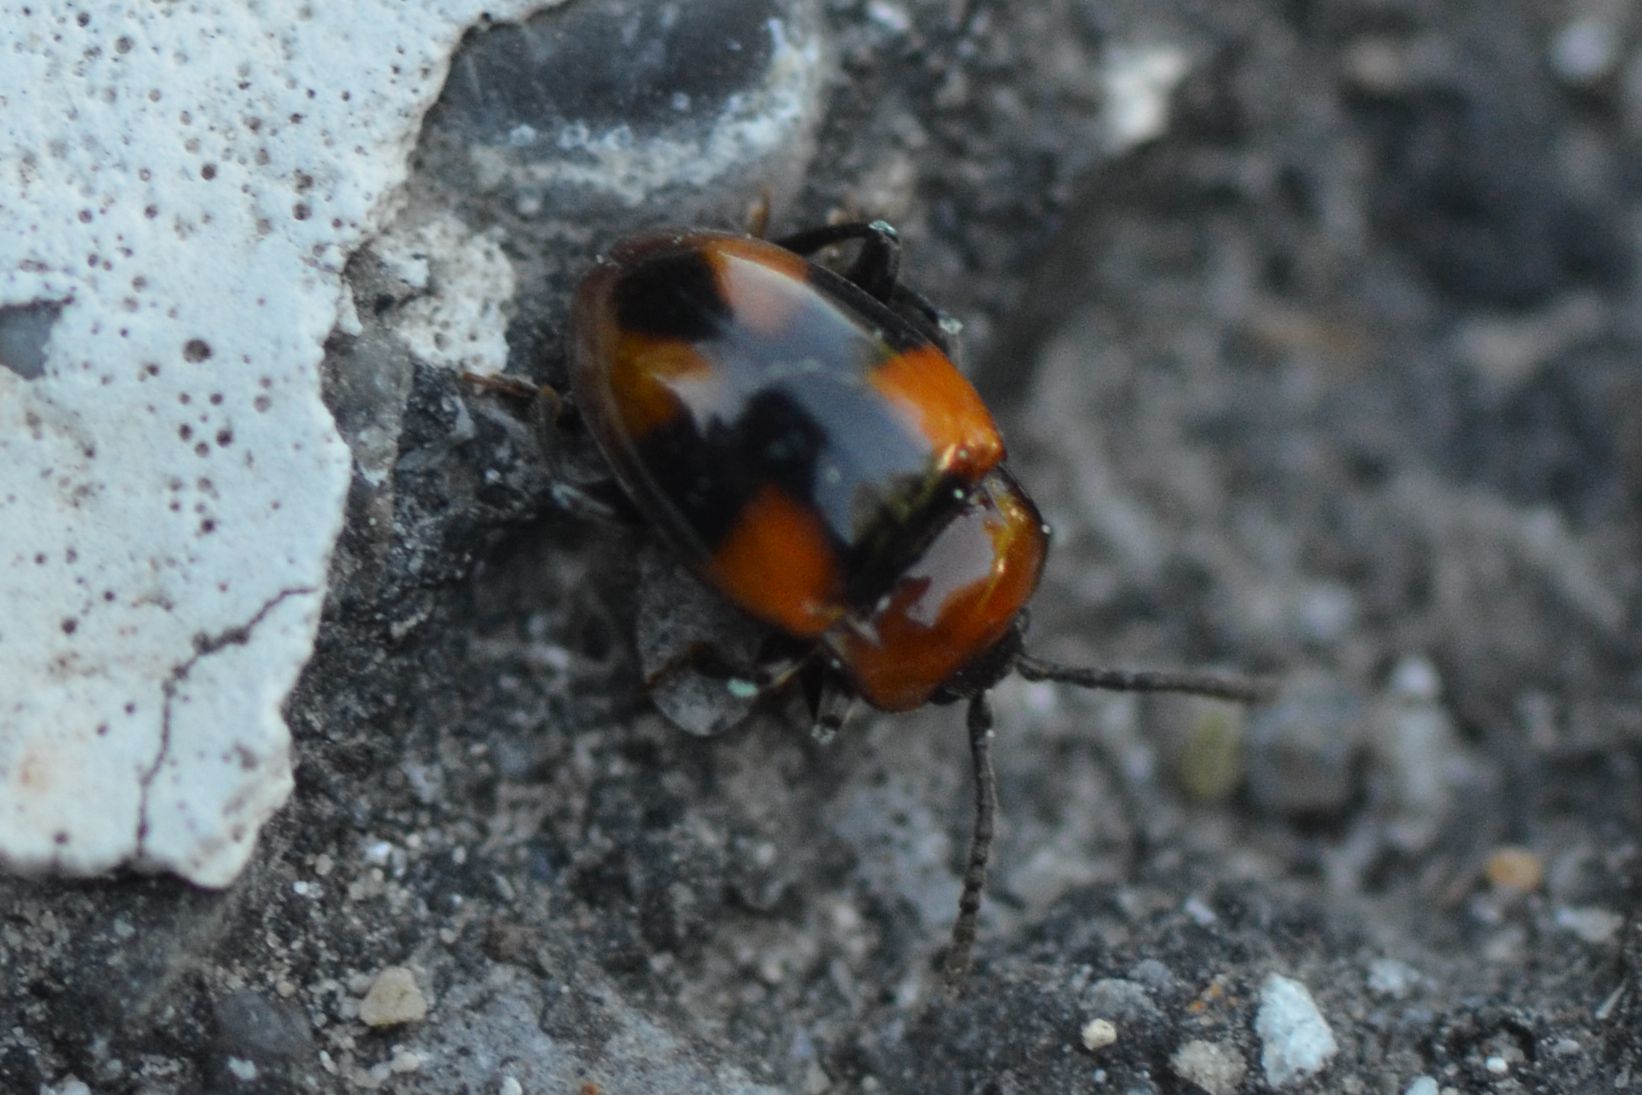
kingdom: Animalia
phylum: Arthropoda
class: Insecta
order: Coleoptera
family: Endomychidae
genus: Mycetina
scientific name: Mycetina cruciata
